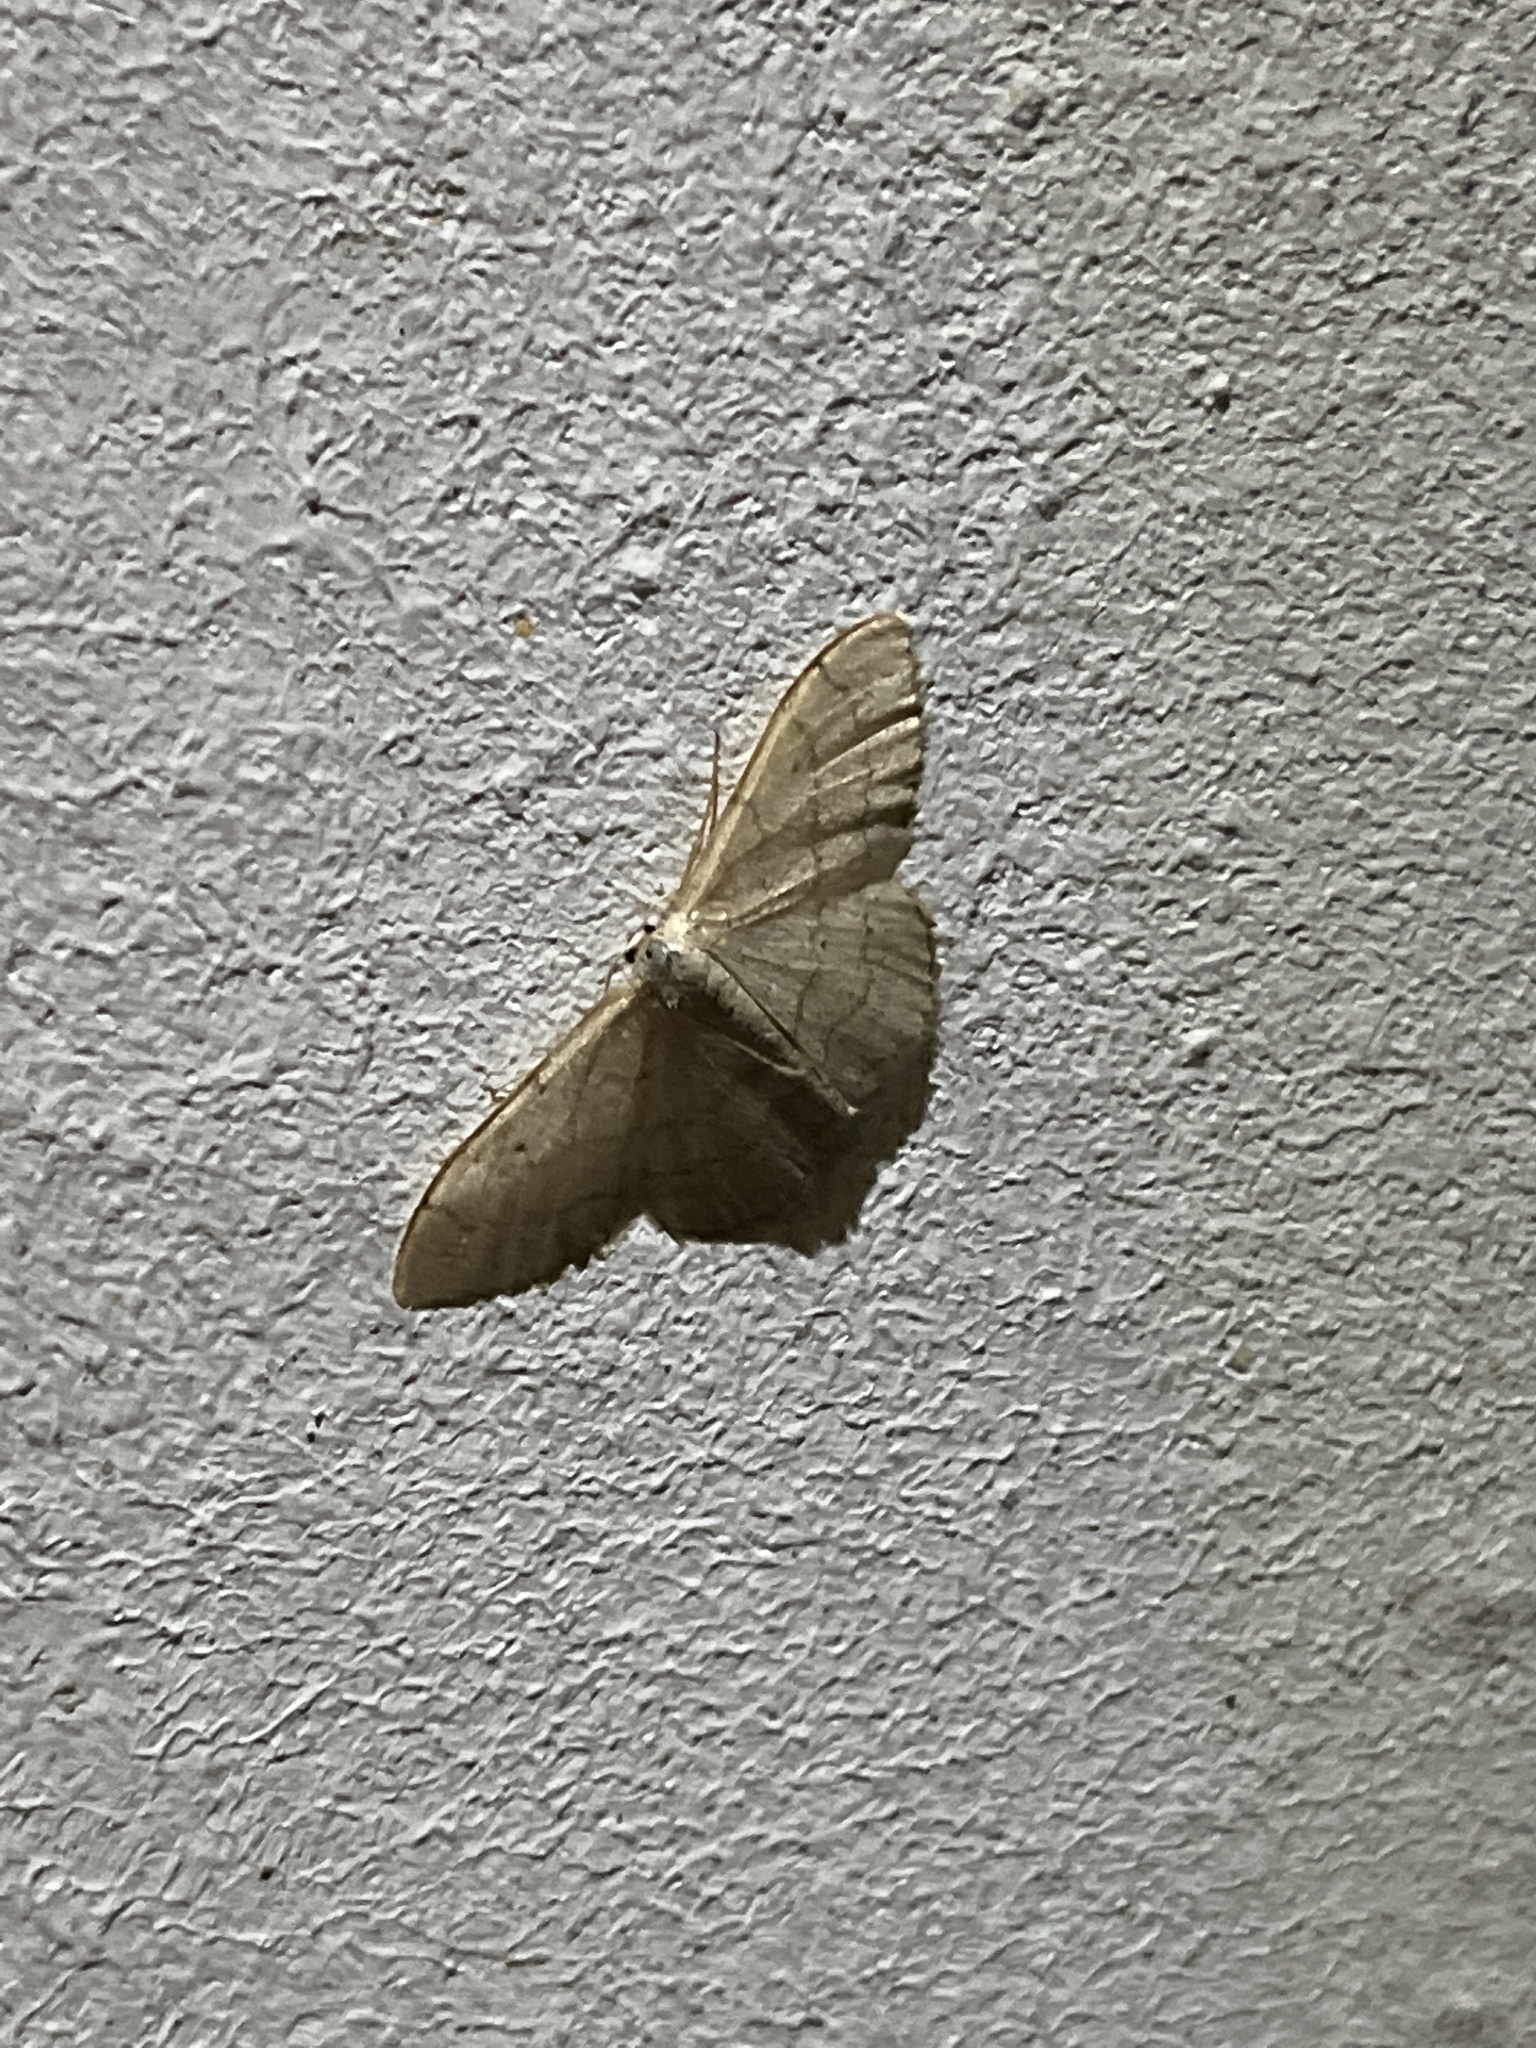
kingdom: Animalia
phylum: Arthropoda
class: Insecta
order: Lepidoptera
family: Geometridae
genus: Idaea
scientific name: Idaea straminata
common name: Plain wave
